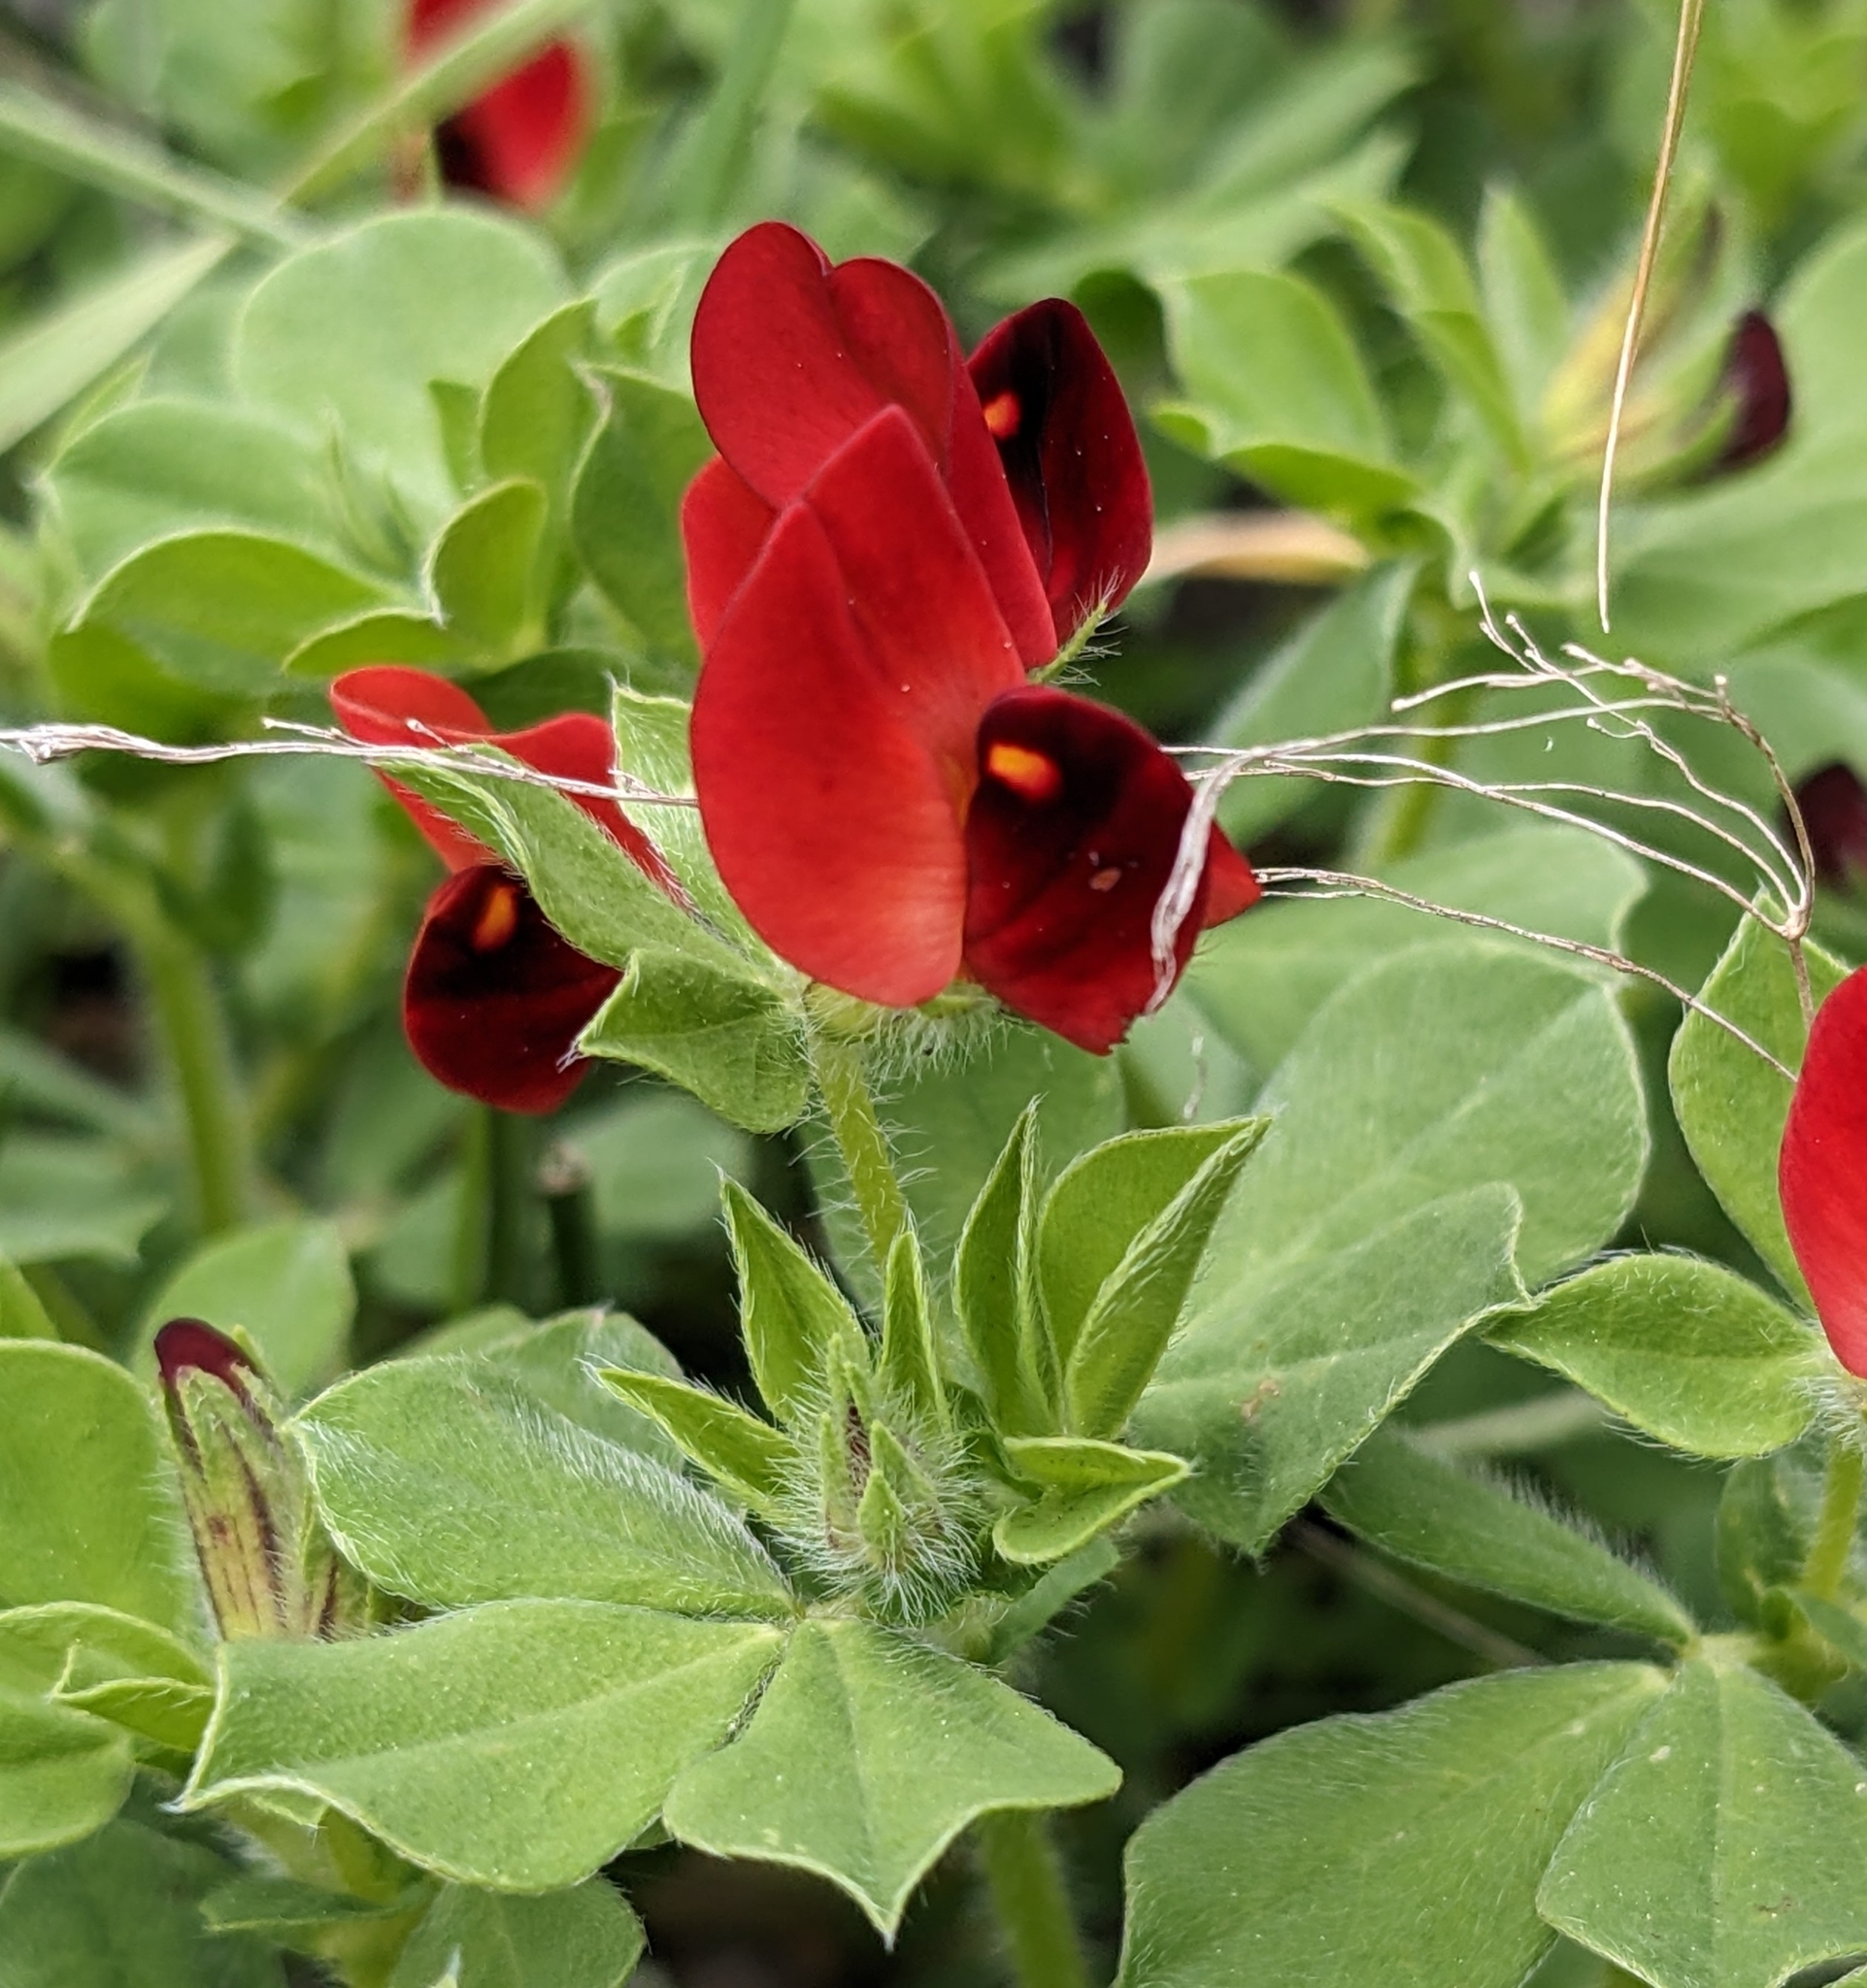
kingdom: Plantae
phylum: Tracheophyta
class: Magnoliopsida
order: Fabales
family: Fabaceae
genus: Lotus
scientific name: Lotus tetragonolobus
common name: Asparagus-pea
